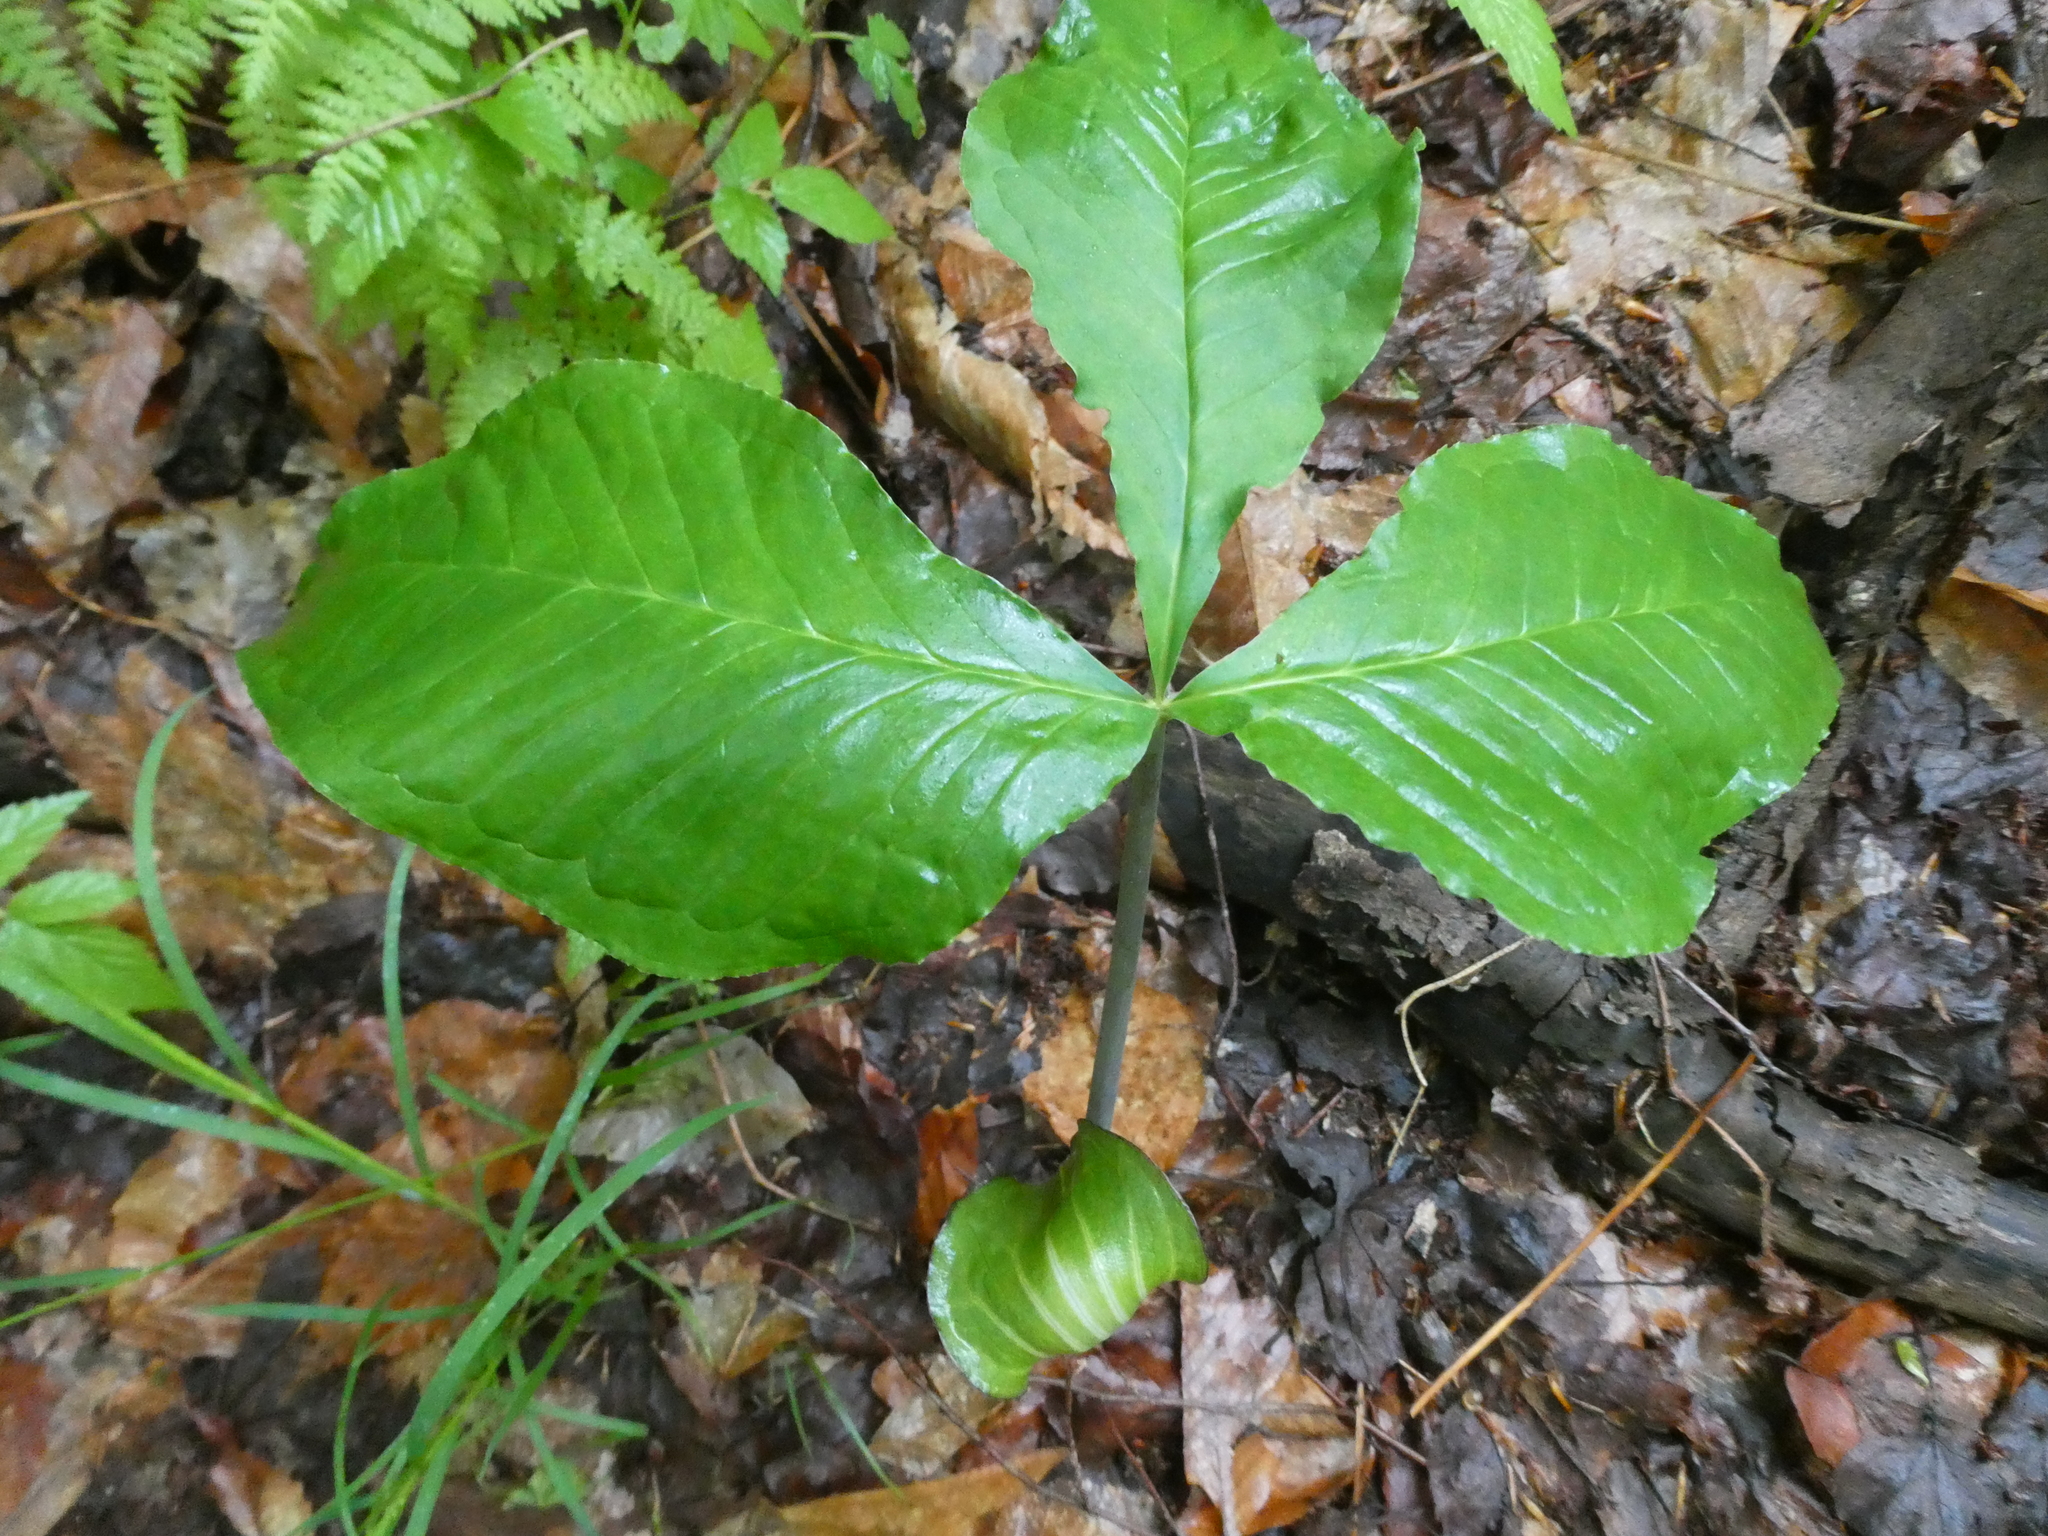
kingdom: Plantae
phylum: Tracheophyta
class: Liliopsida
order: Alismatales
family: Araceae
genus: Arisaema
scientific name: Arisaema triphyllum
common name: Jack-in-the-pulpit
